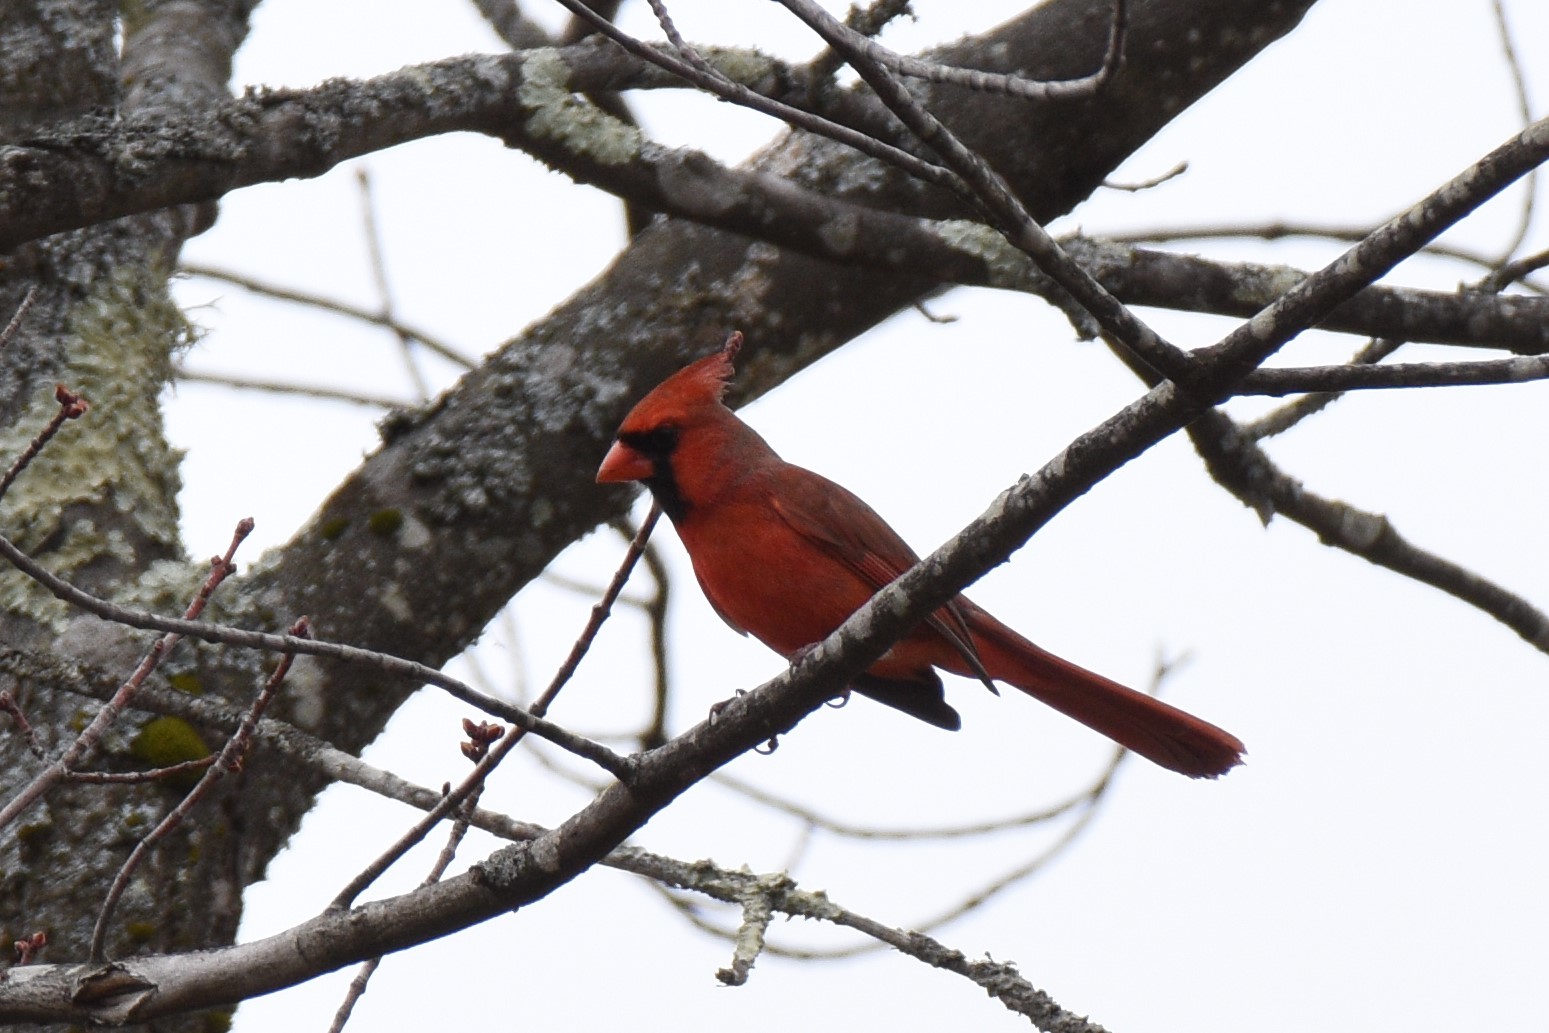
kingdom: Animalia
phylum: Chordata
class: Aves
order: Passeriformes
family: Cardinalidae
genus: Cardinalis
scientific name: Cardinalis cardinalis
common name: Northern cardinal
